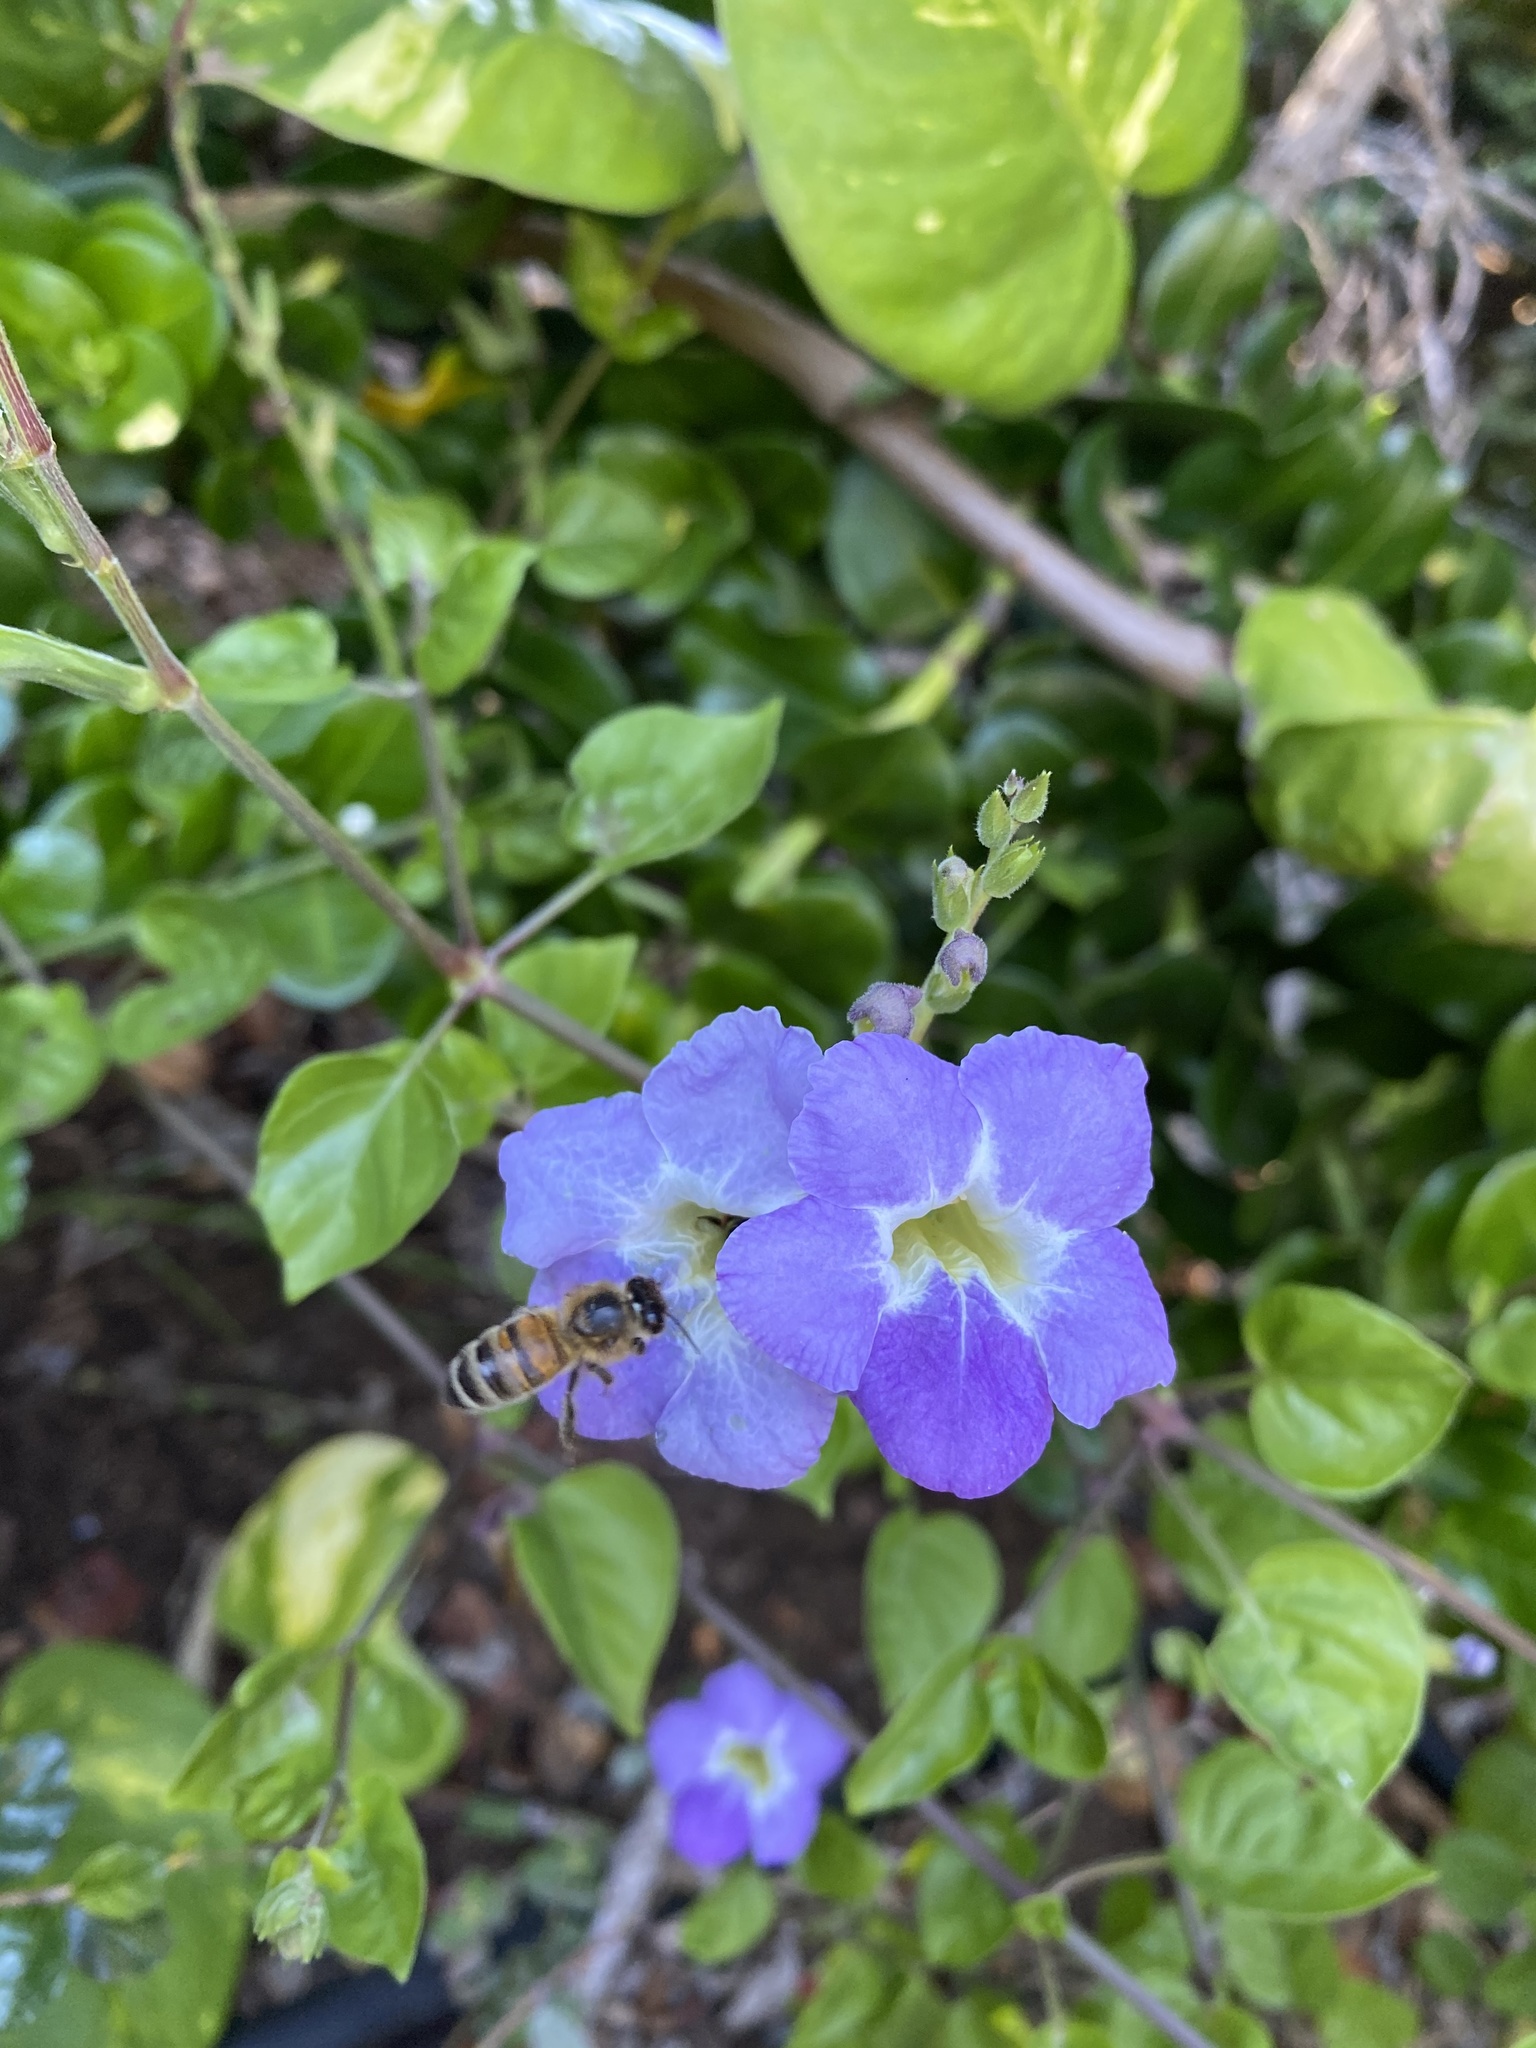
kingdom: Animalia
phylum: Arthropoda
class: Insecta
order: Hymenoptera
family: Apidae
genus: Apis
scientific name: Apis mellifera
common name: Honey bee
